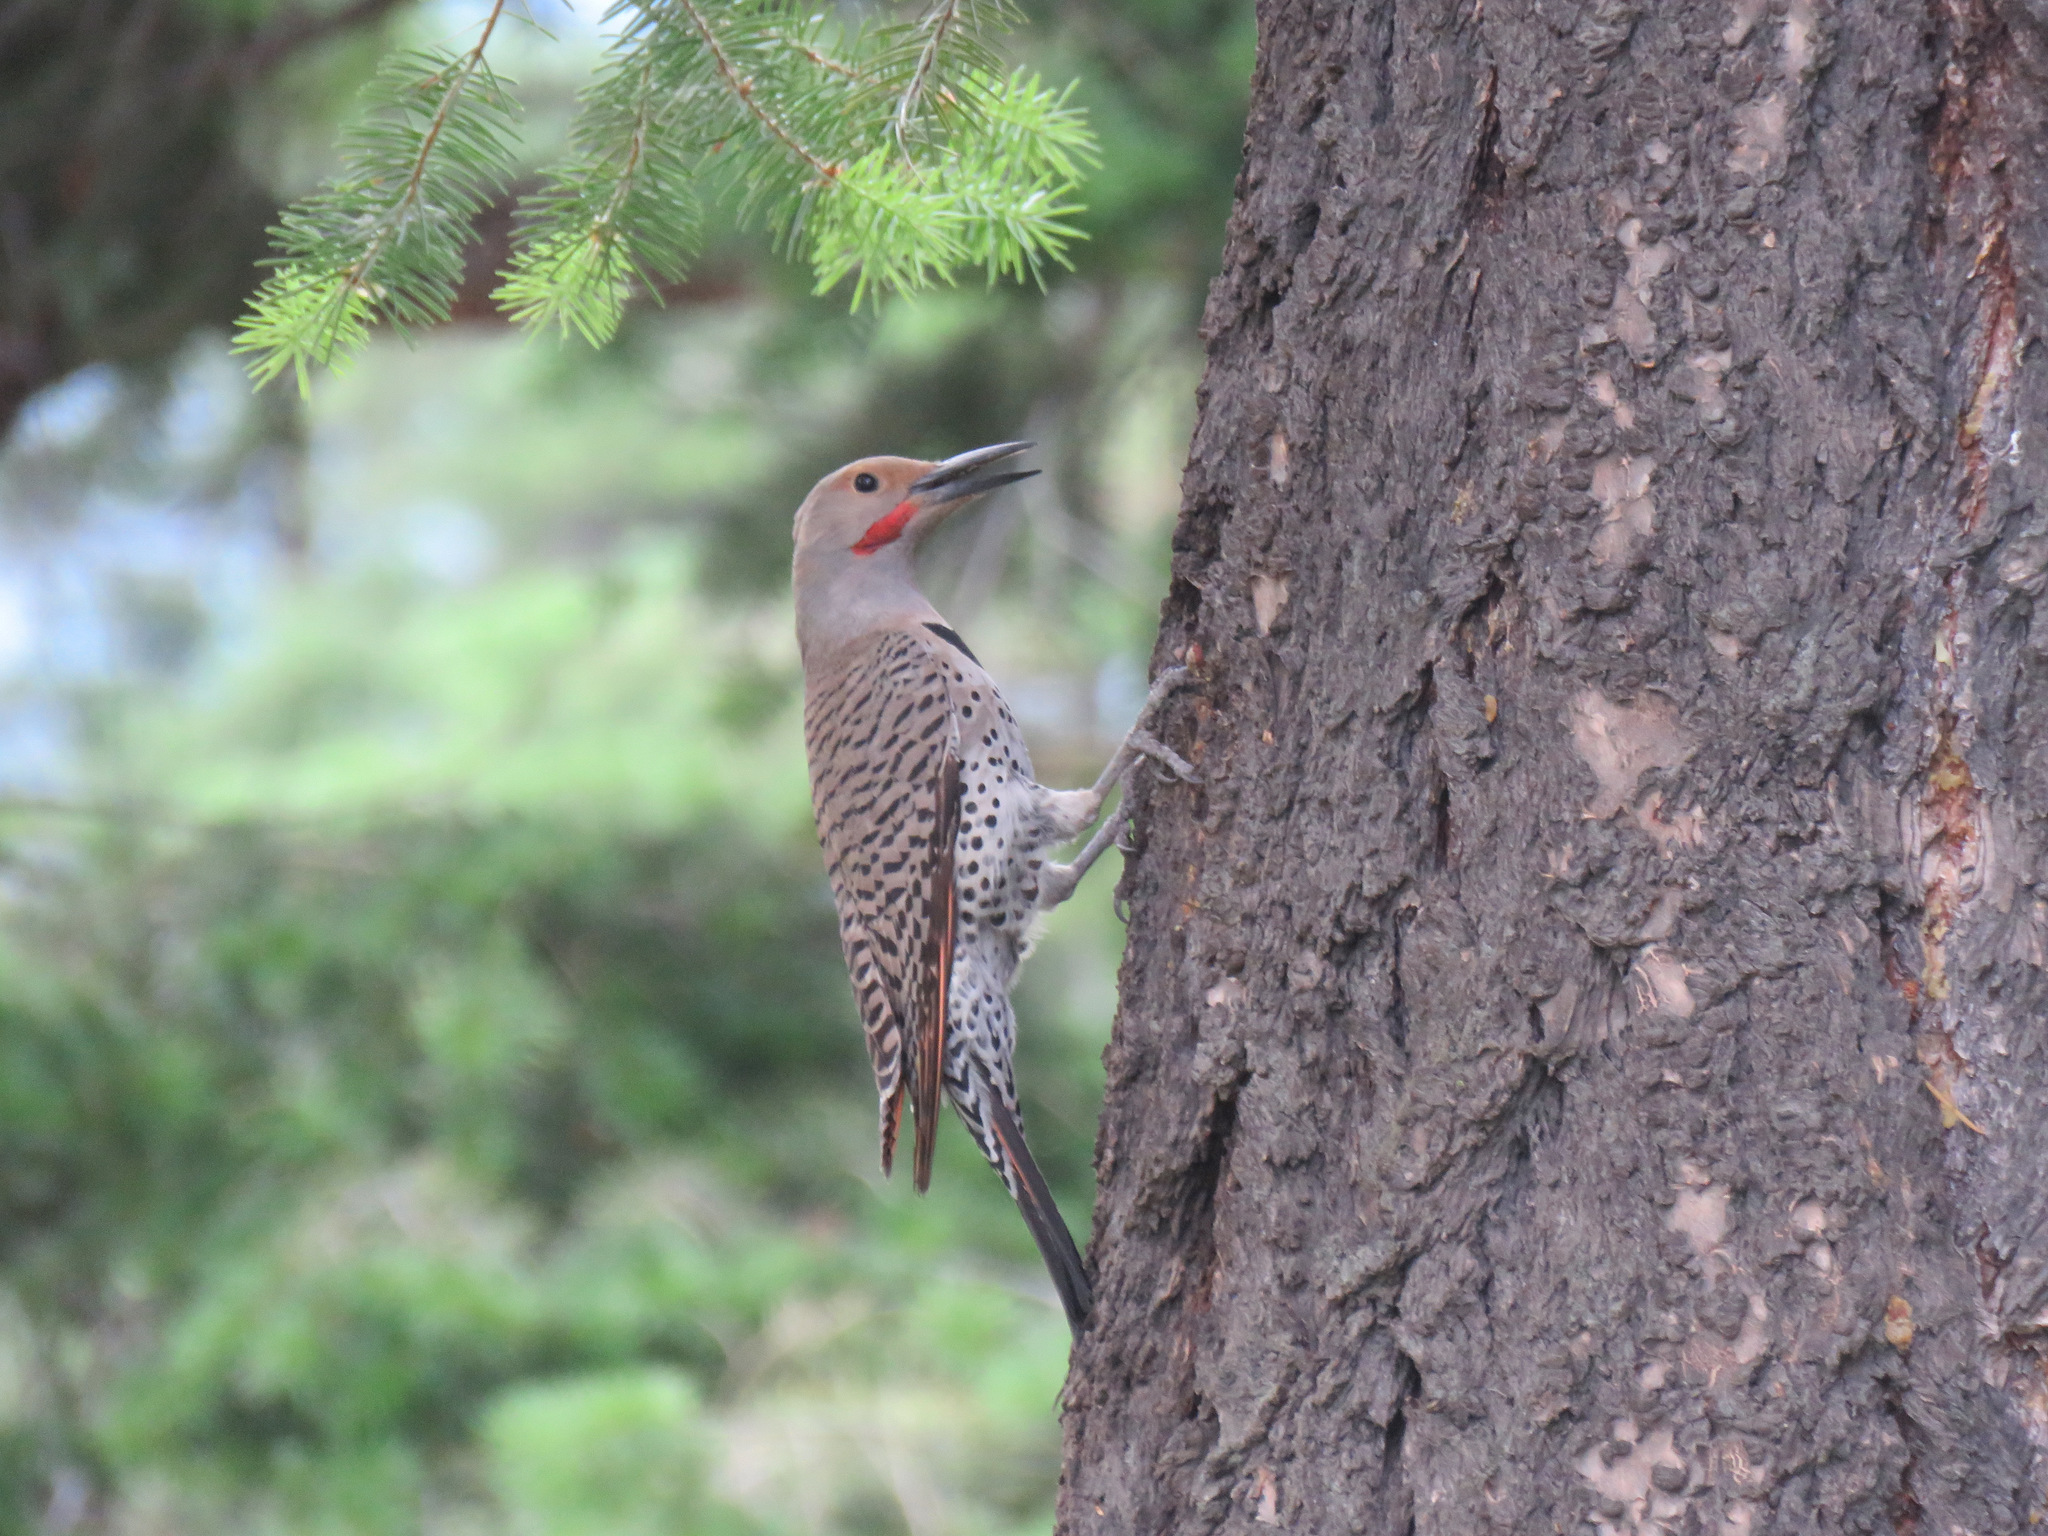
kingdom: Animalia
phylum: Chordata
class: Aves
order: Piciformes
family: Picidae
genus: Colaptes
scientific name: Colaptes auratus
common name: Northern flicker
